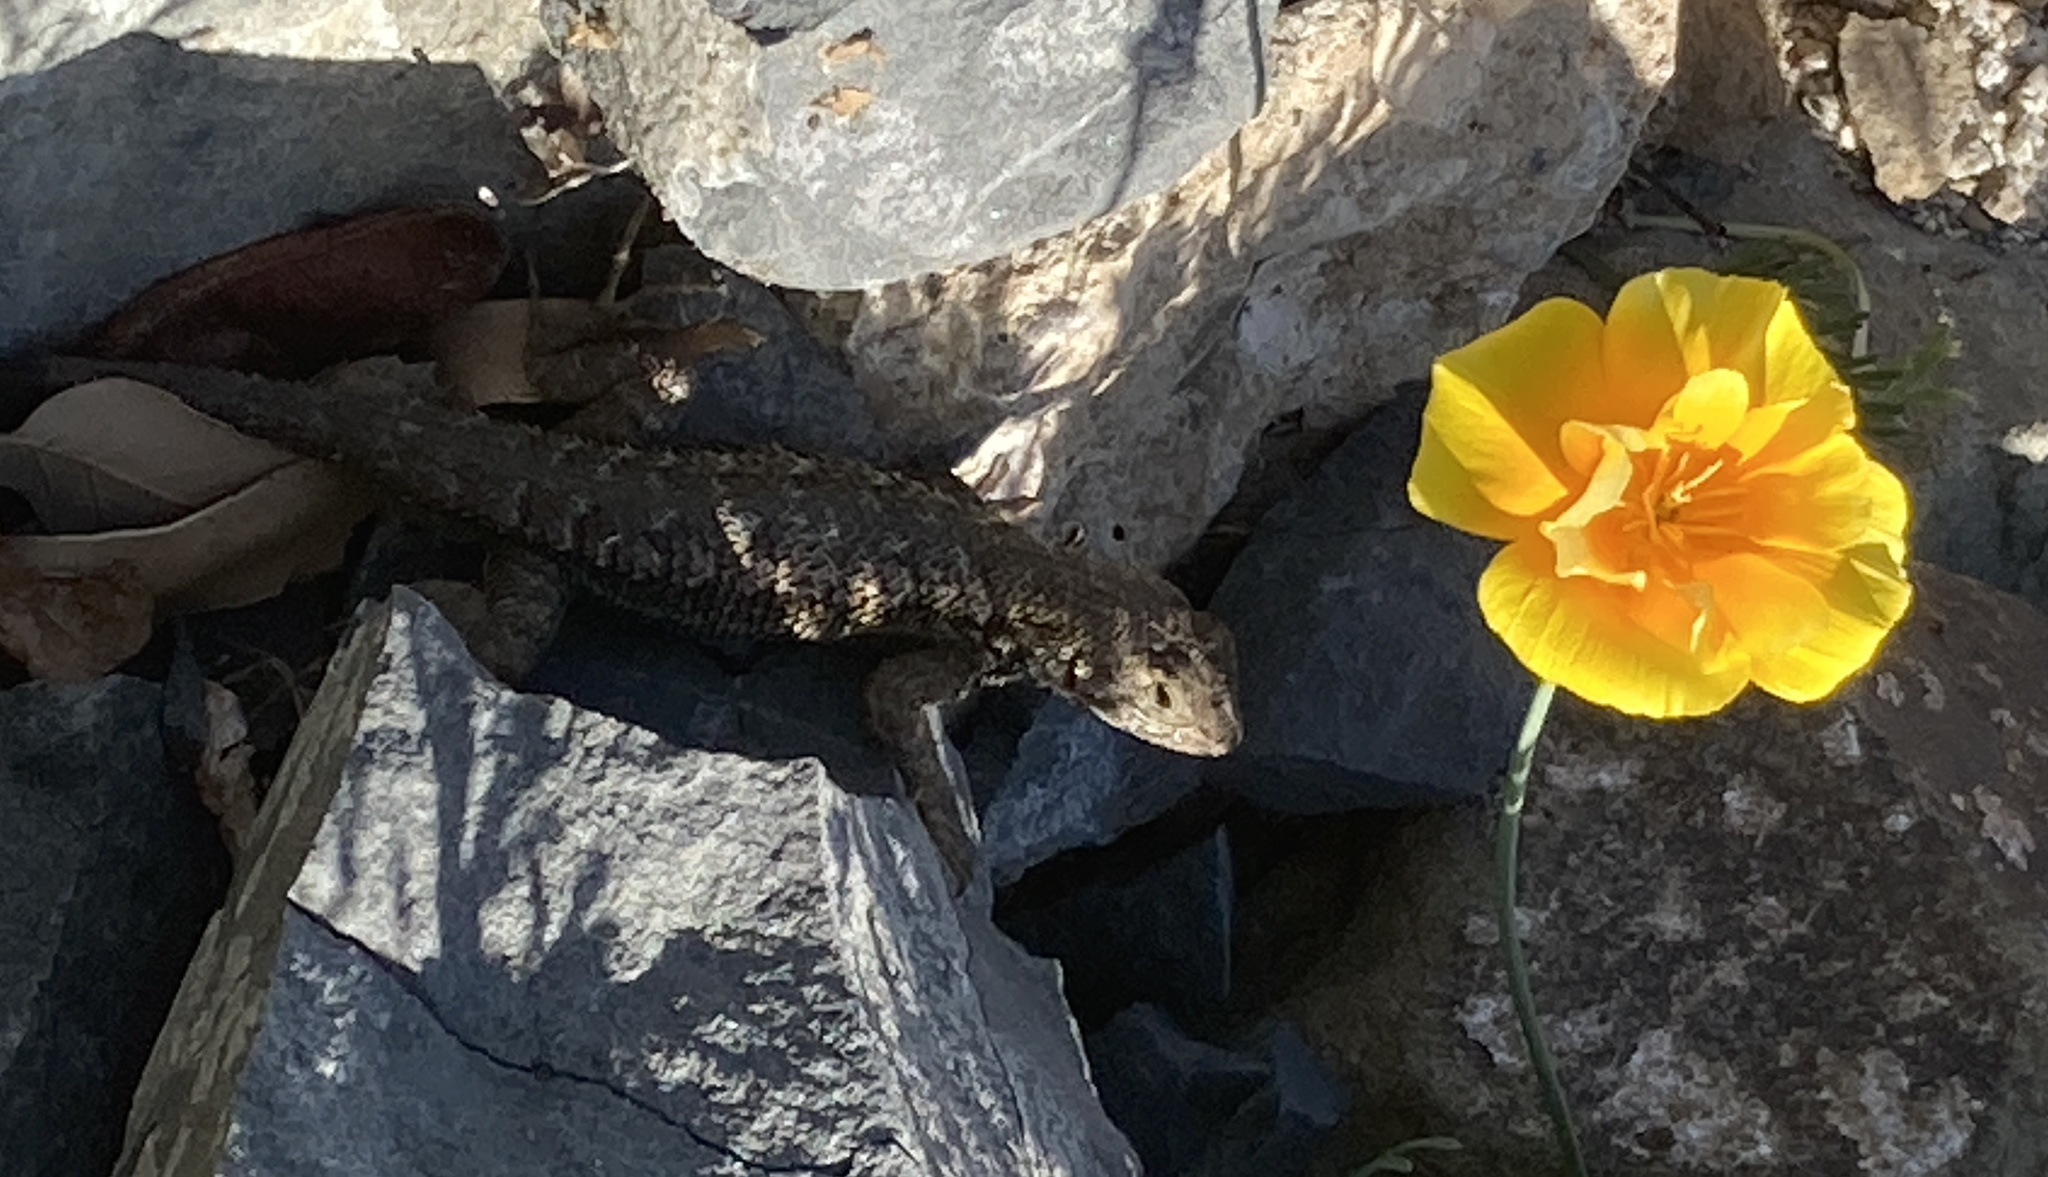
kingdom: Animalia
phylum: Chordata
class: Squamata
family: Phrynosomatidae
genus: Sceloporus
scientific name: Sceloporus occidentalis
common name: Western fence lizard
